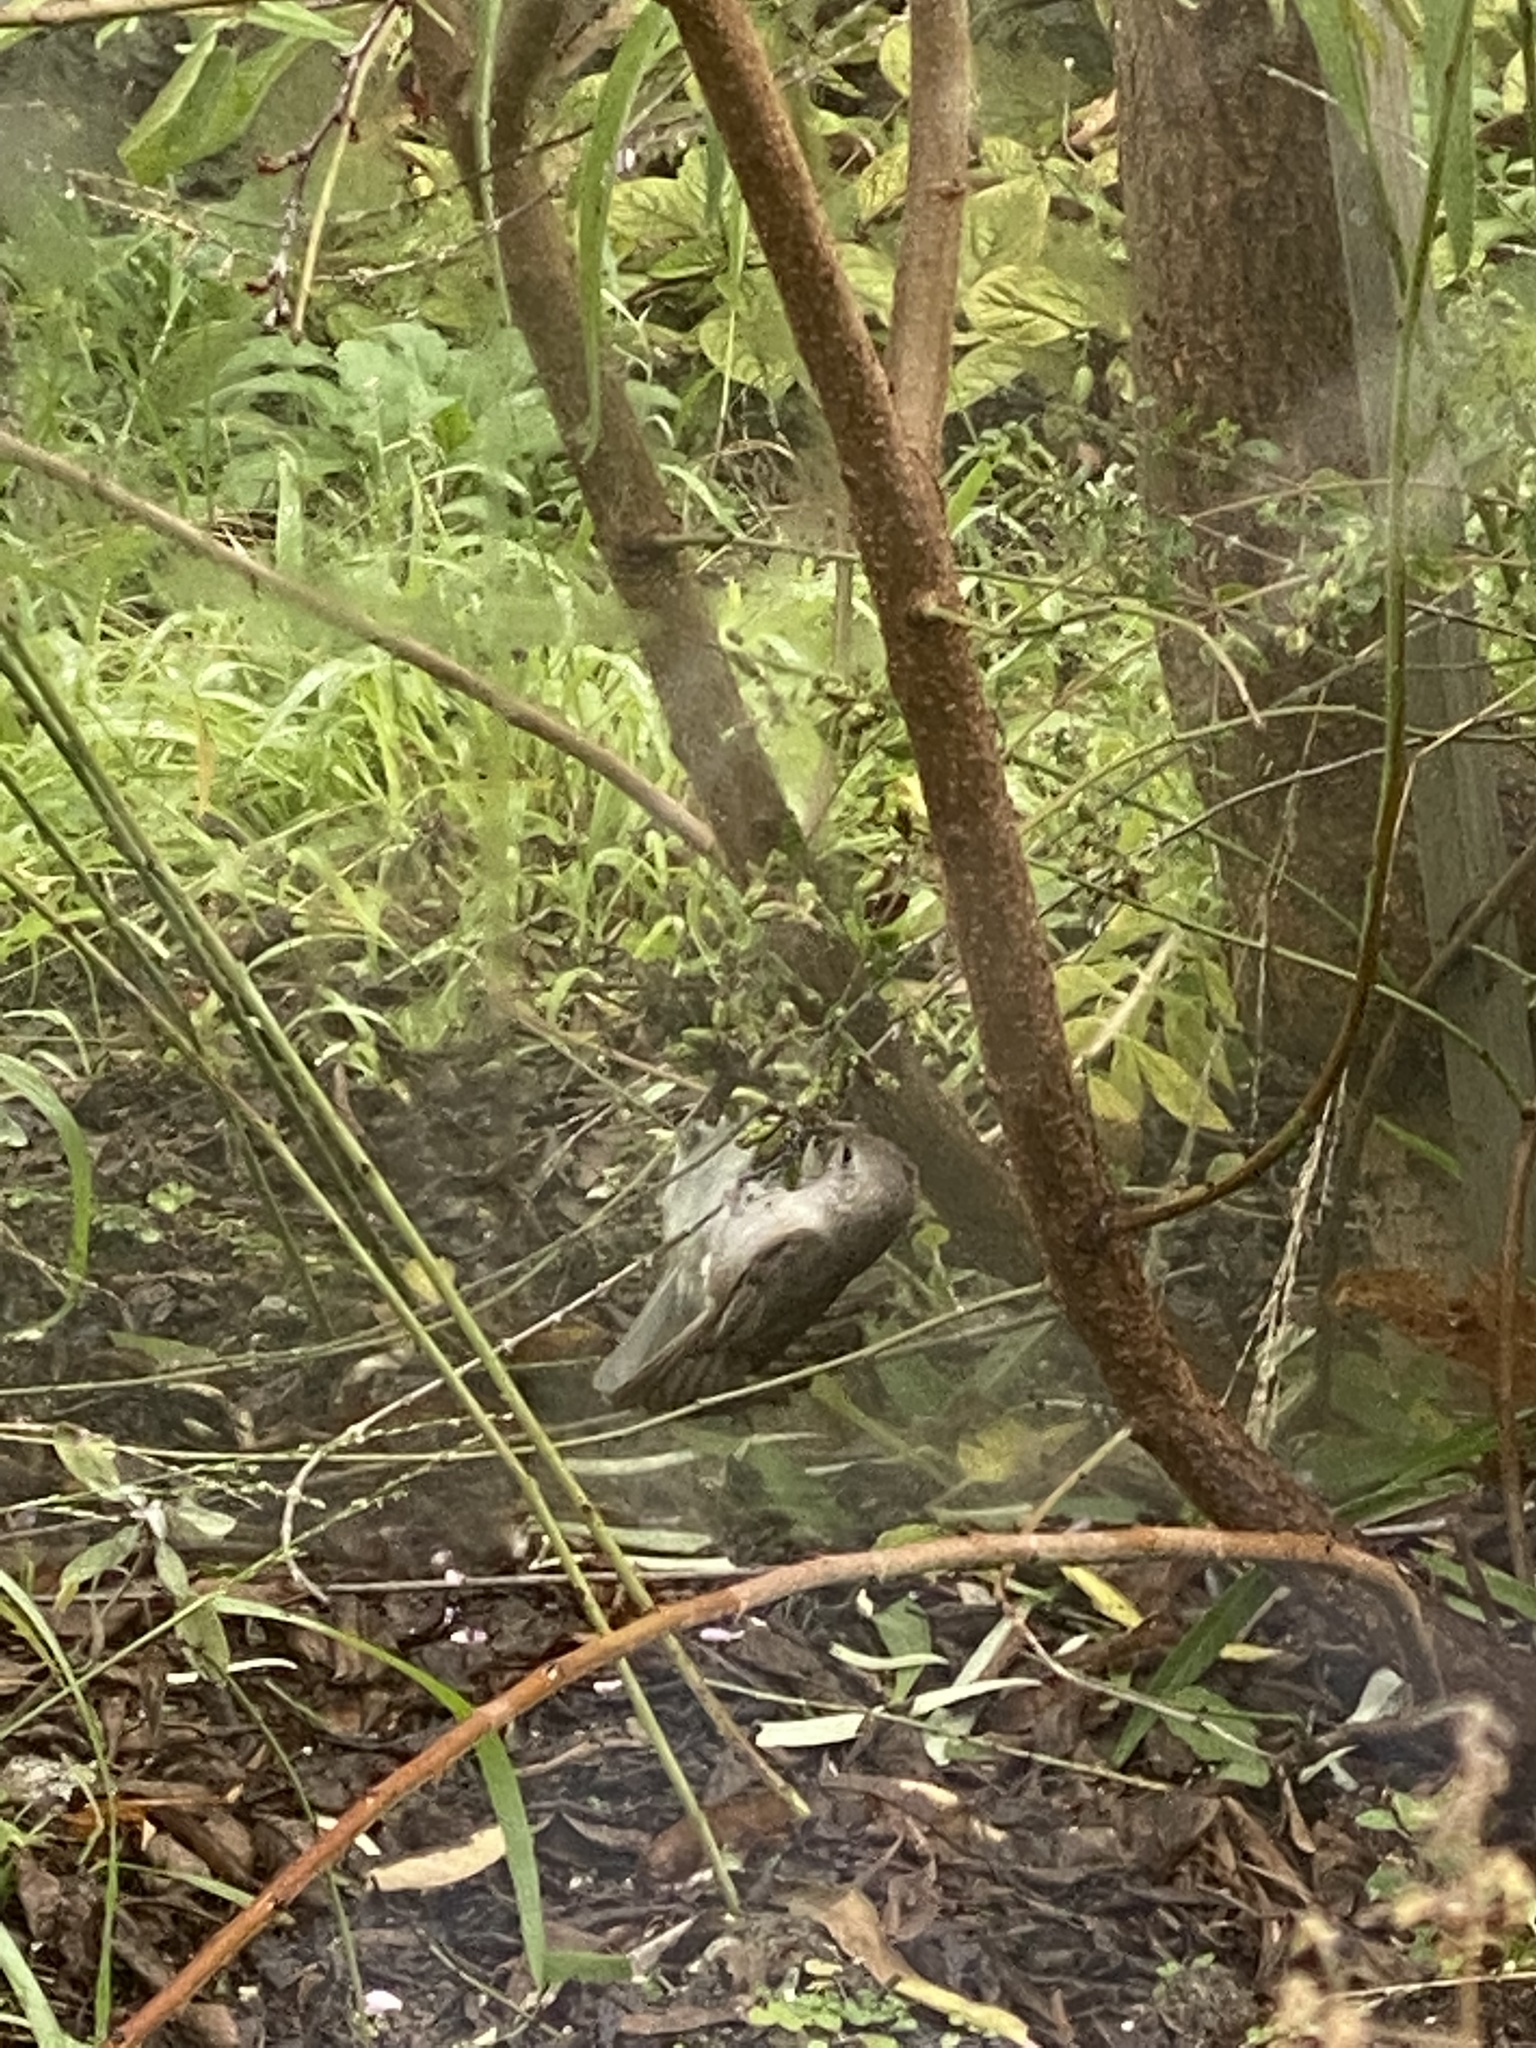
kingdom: Animalia
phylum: Chordata
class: Aves
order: Passeriformes
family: Paridae
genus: Baeolophus
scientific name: Baeolophus inornatus
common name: Oak titmouse
